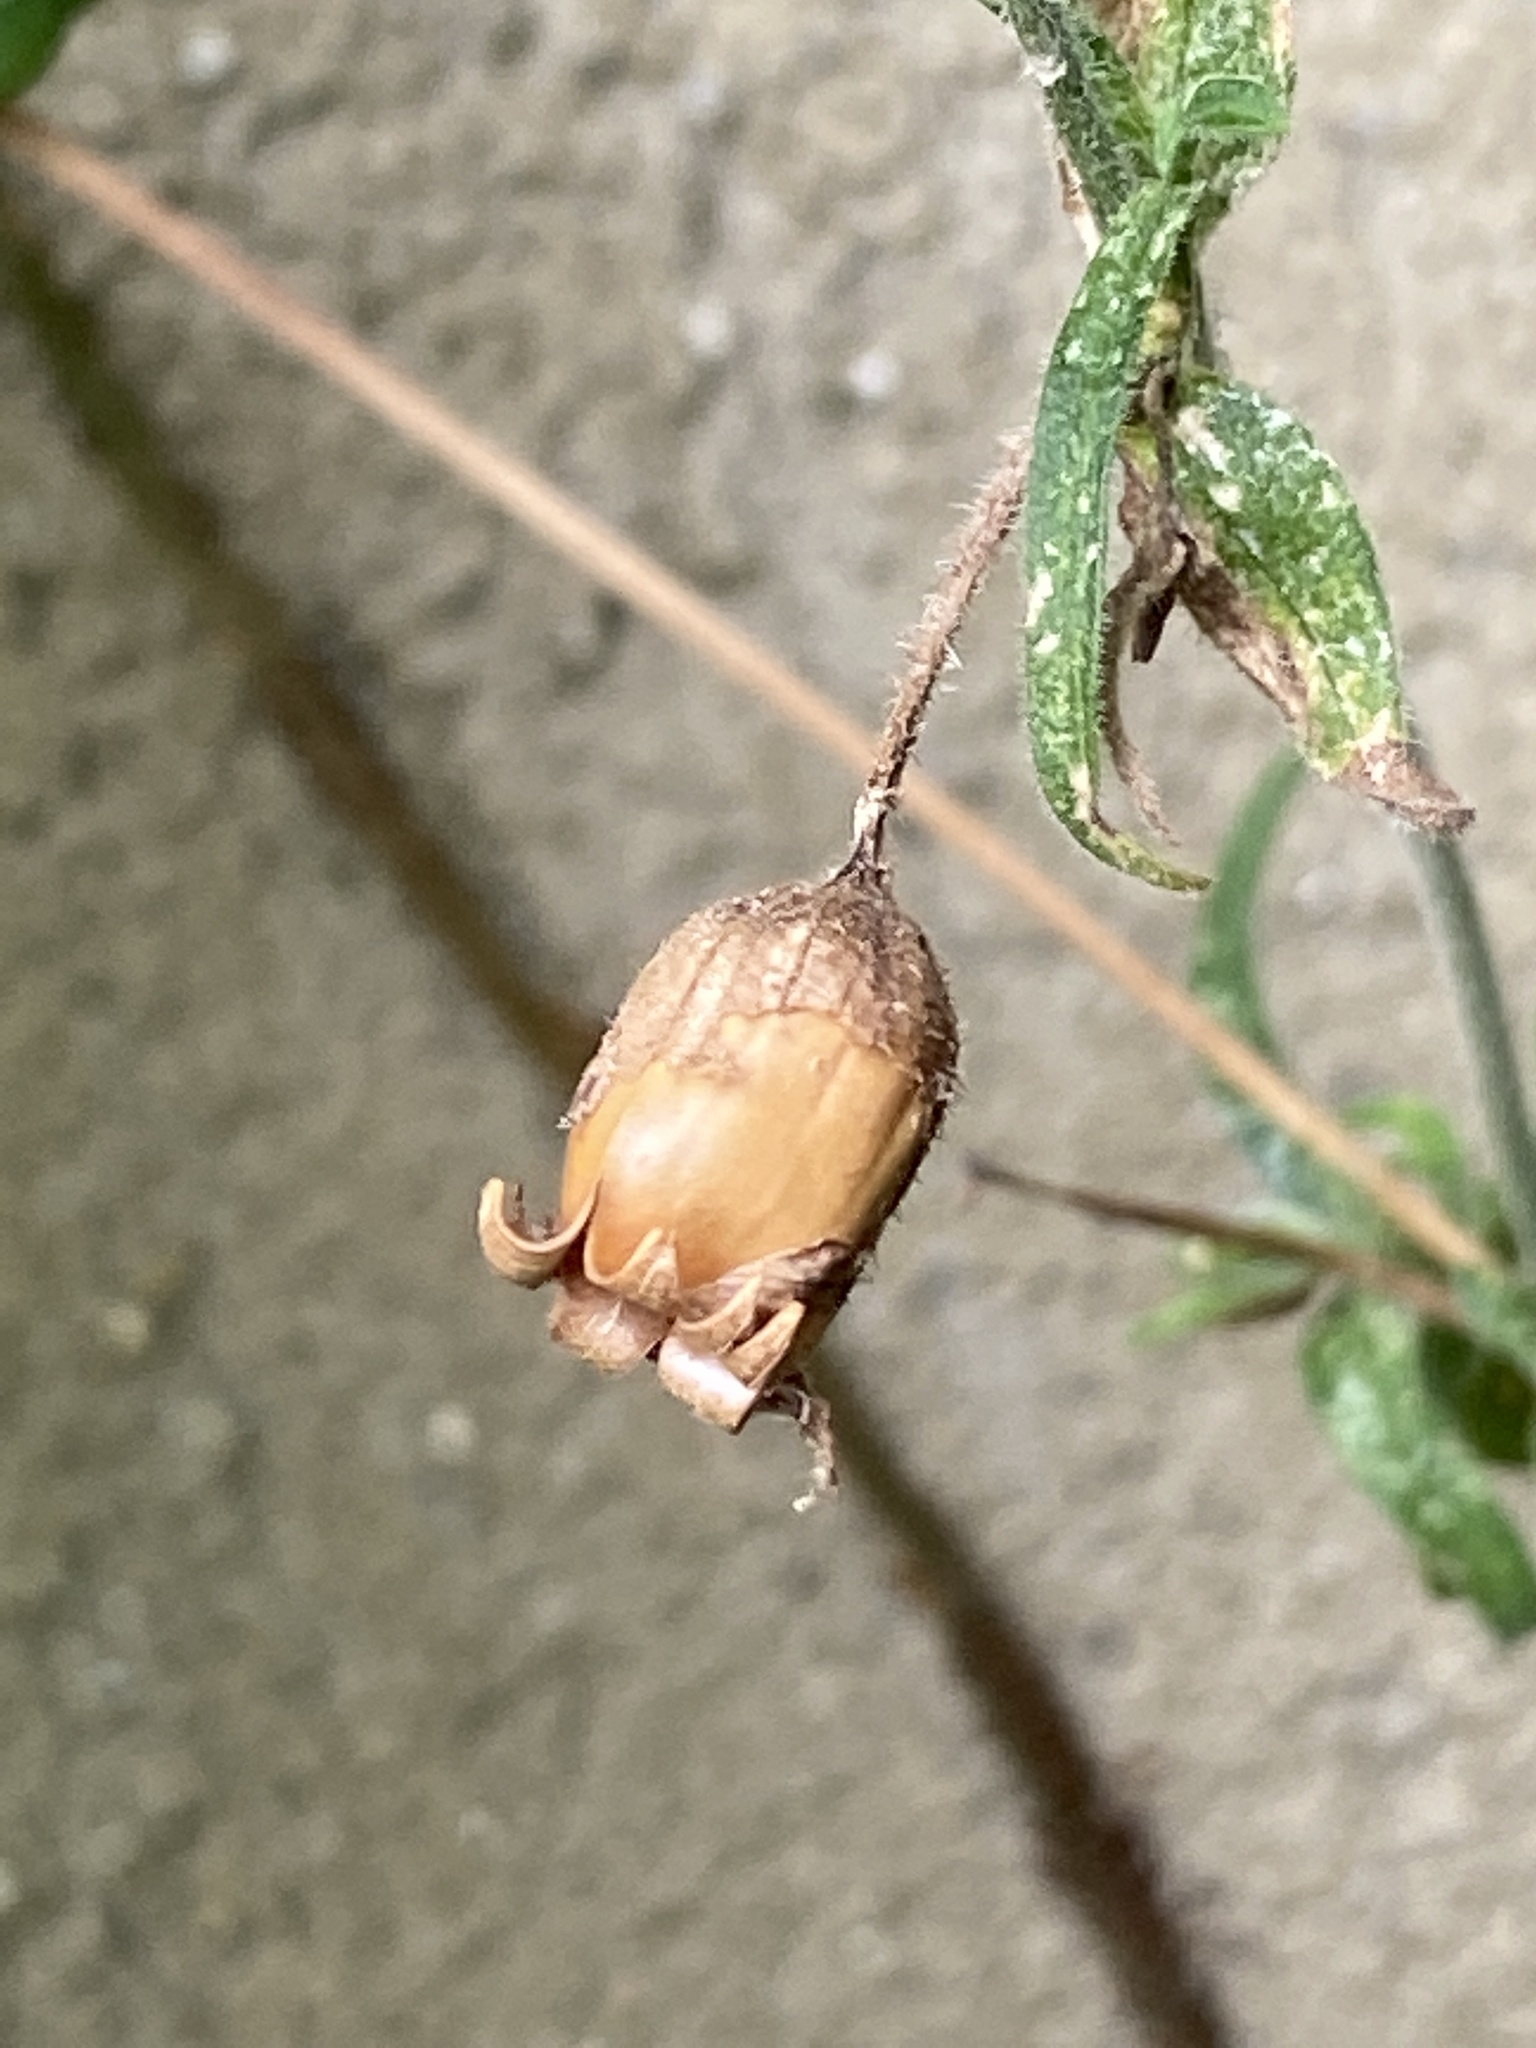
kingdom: Plantae
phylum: Tracheophyta
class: Magnoliopsida
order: Caryophyllales
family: Caryophyllaceae
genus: Silene
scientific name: Silene latifolia
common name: White campion
